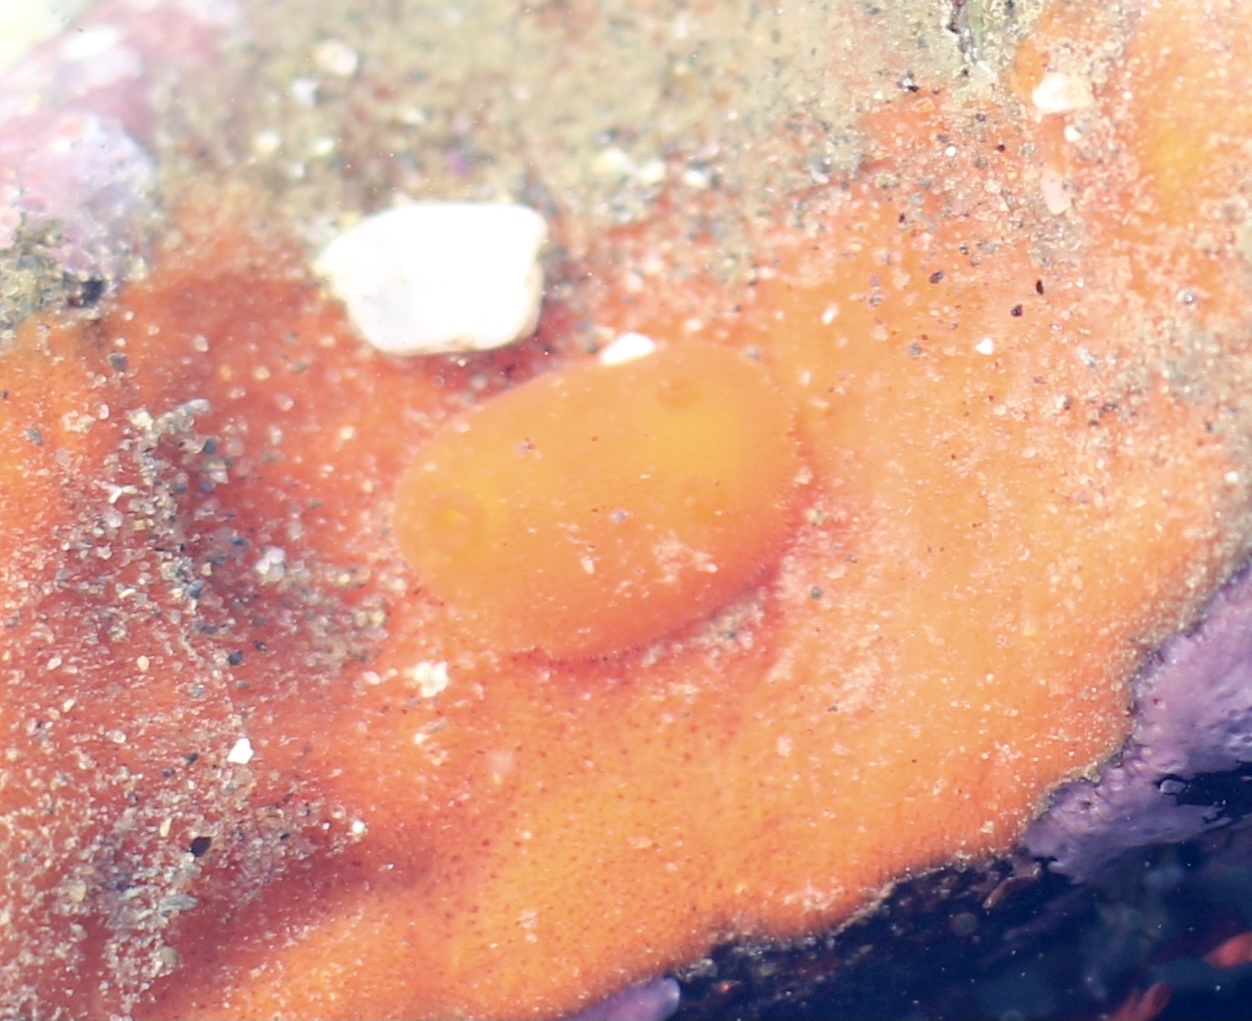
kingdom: Animalia
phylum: Mollusca
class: Gastropoda
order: Nudibranchia
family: Discodorididae
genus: Rostanga
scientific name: Rostanga pulchra
